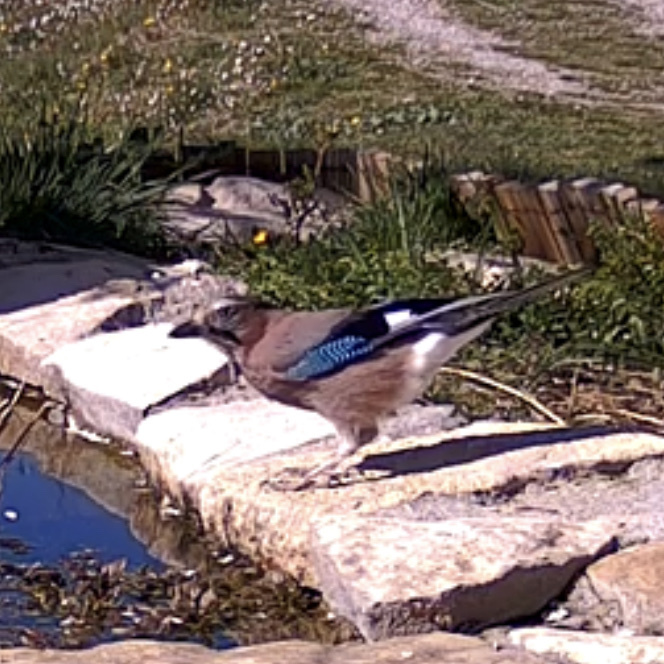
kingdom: Animalia
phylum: Chordata
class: Aves
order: Passeriformes
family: Corvidae
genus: Garrulus
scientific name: Garrulus glandarius
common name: Eurasian jay
